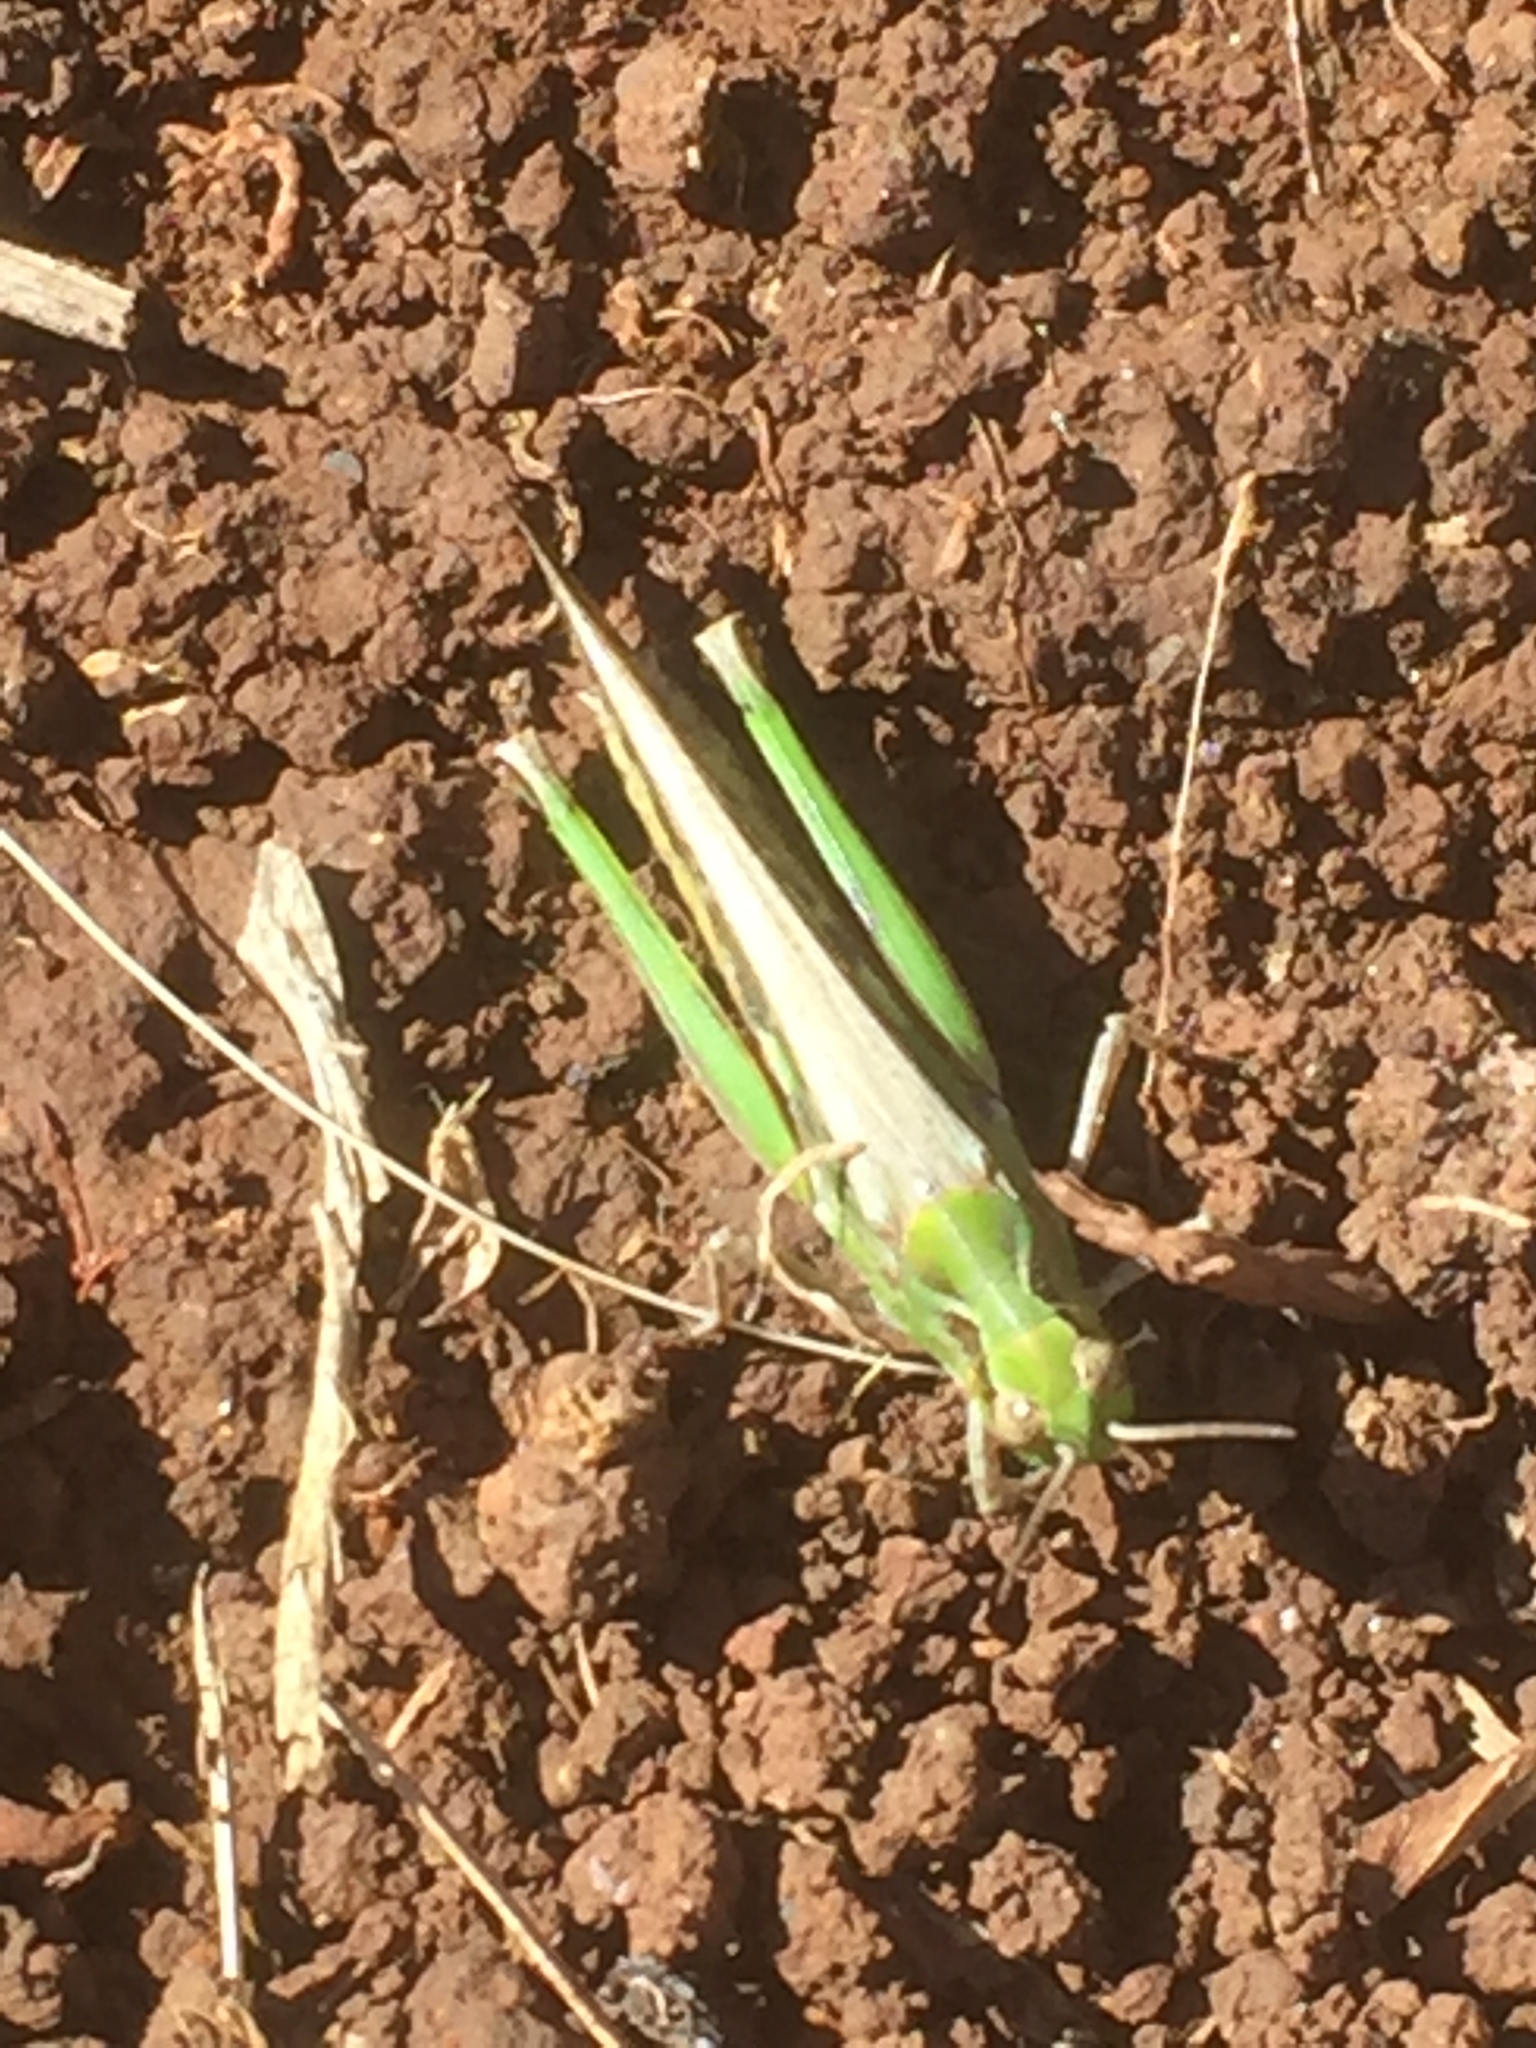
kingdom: Animalia
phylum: Arthropoda
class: Insecta
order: Orthoptera
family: Acrididae
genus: Aiolopus
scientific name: Aiolopus thalassinus
